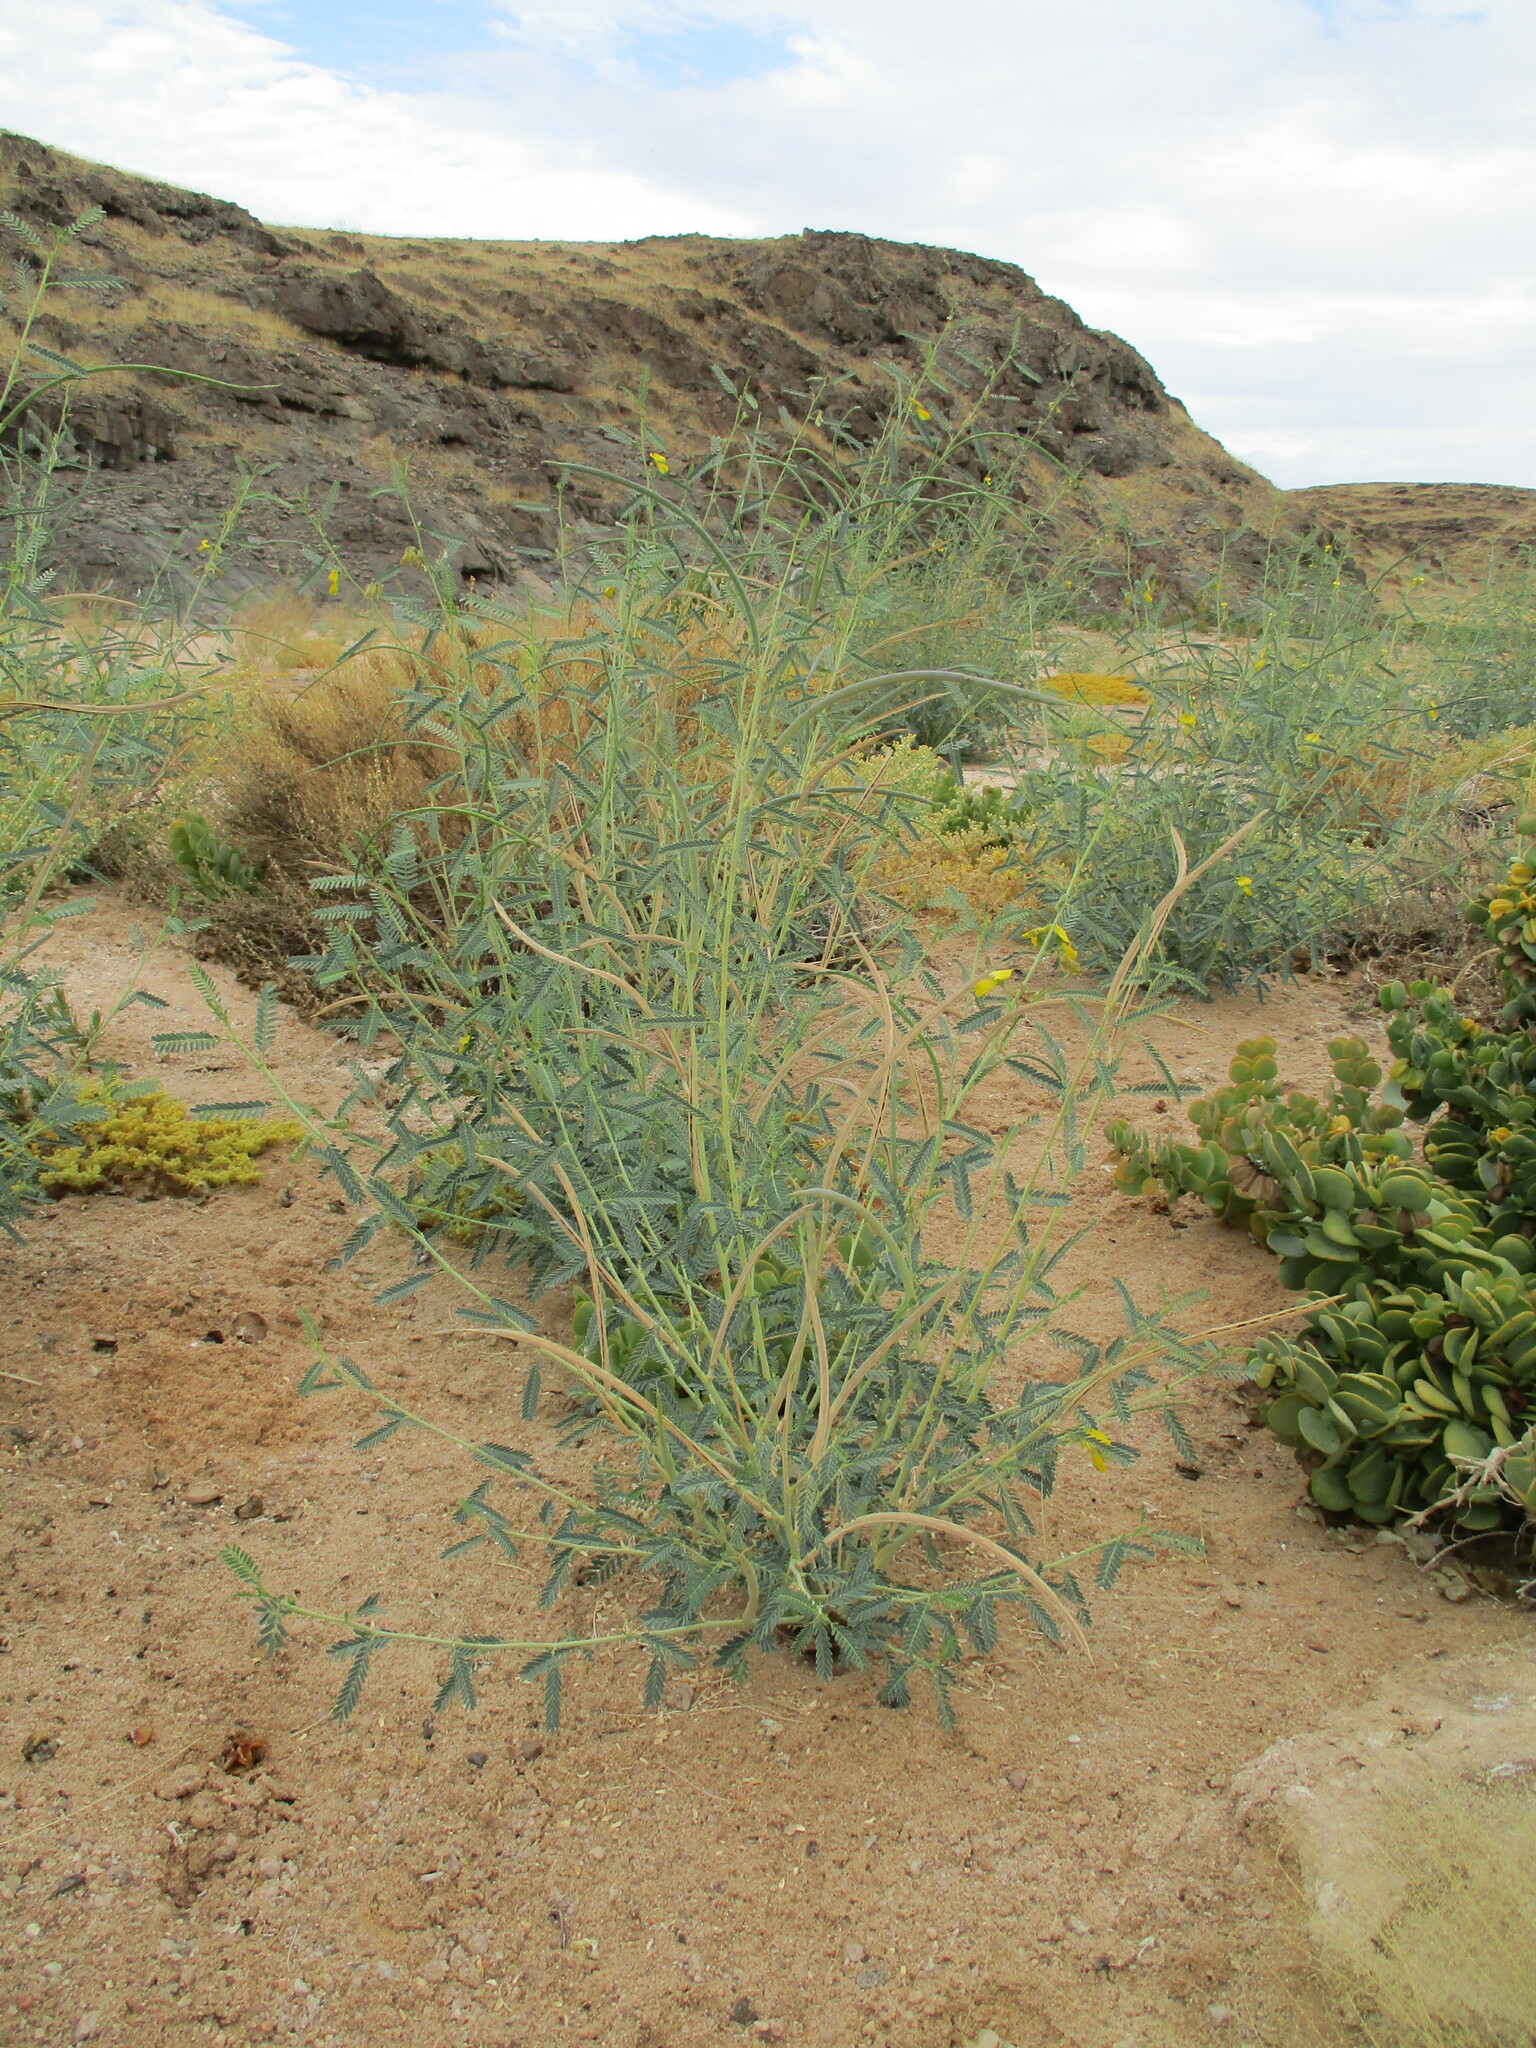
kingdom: Plantae
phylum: Tracheophyta
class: Magnoliopsida
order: Fabales
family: Fabaceae
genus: Sesbania
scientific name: Sesbania pachycarpa
